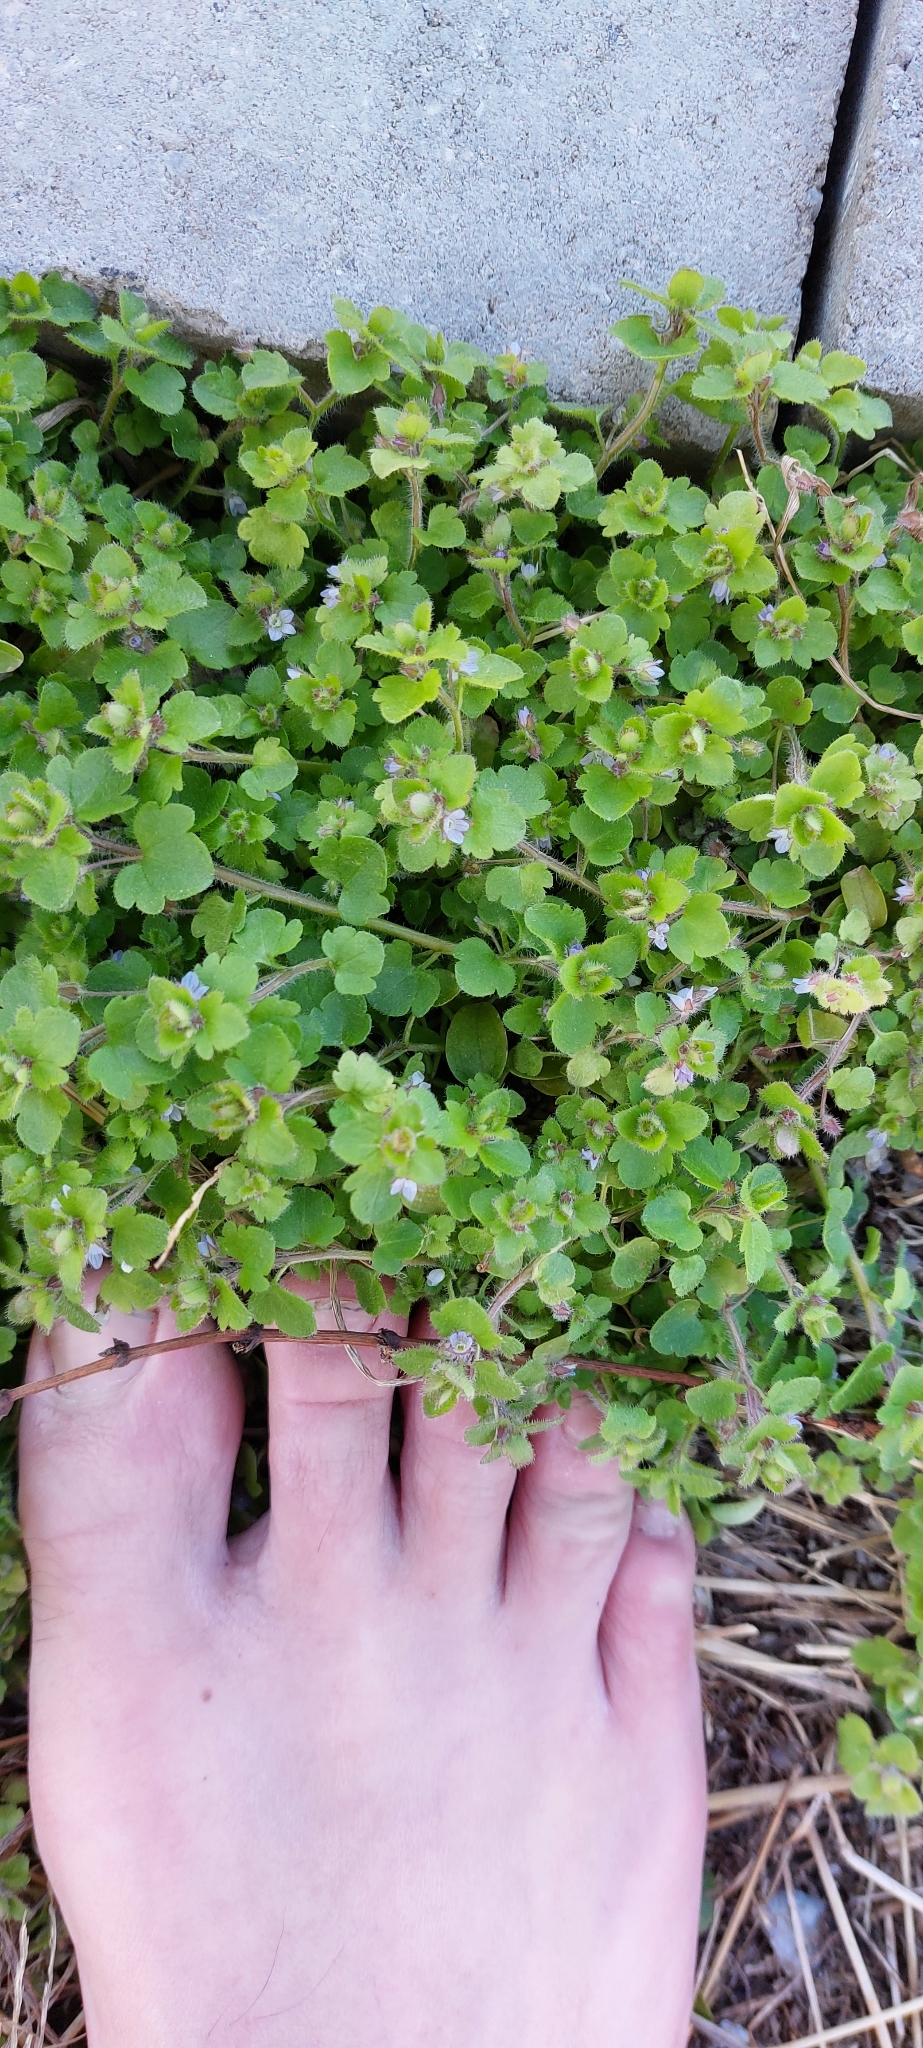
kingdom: Plantae
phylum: Tracheophyta
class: Magnoliopsida
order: Lamiales
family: Plantaginaceae
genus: Veronica
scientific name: Veronica sublobata
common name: False ivy-leaved speedwell
